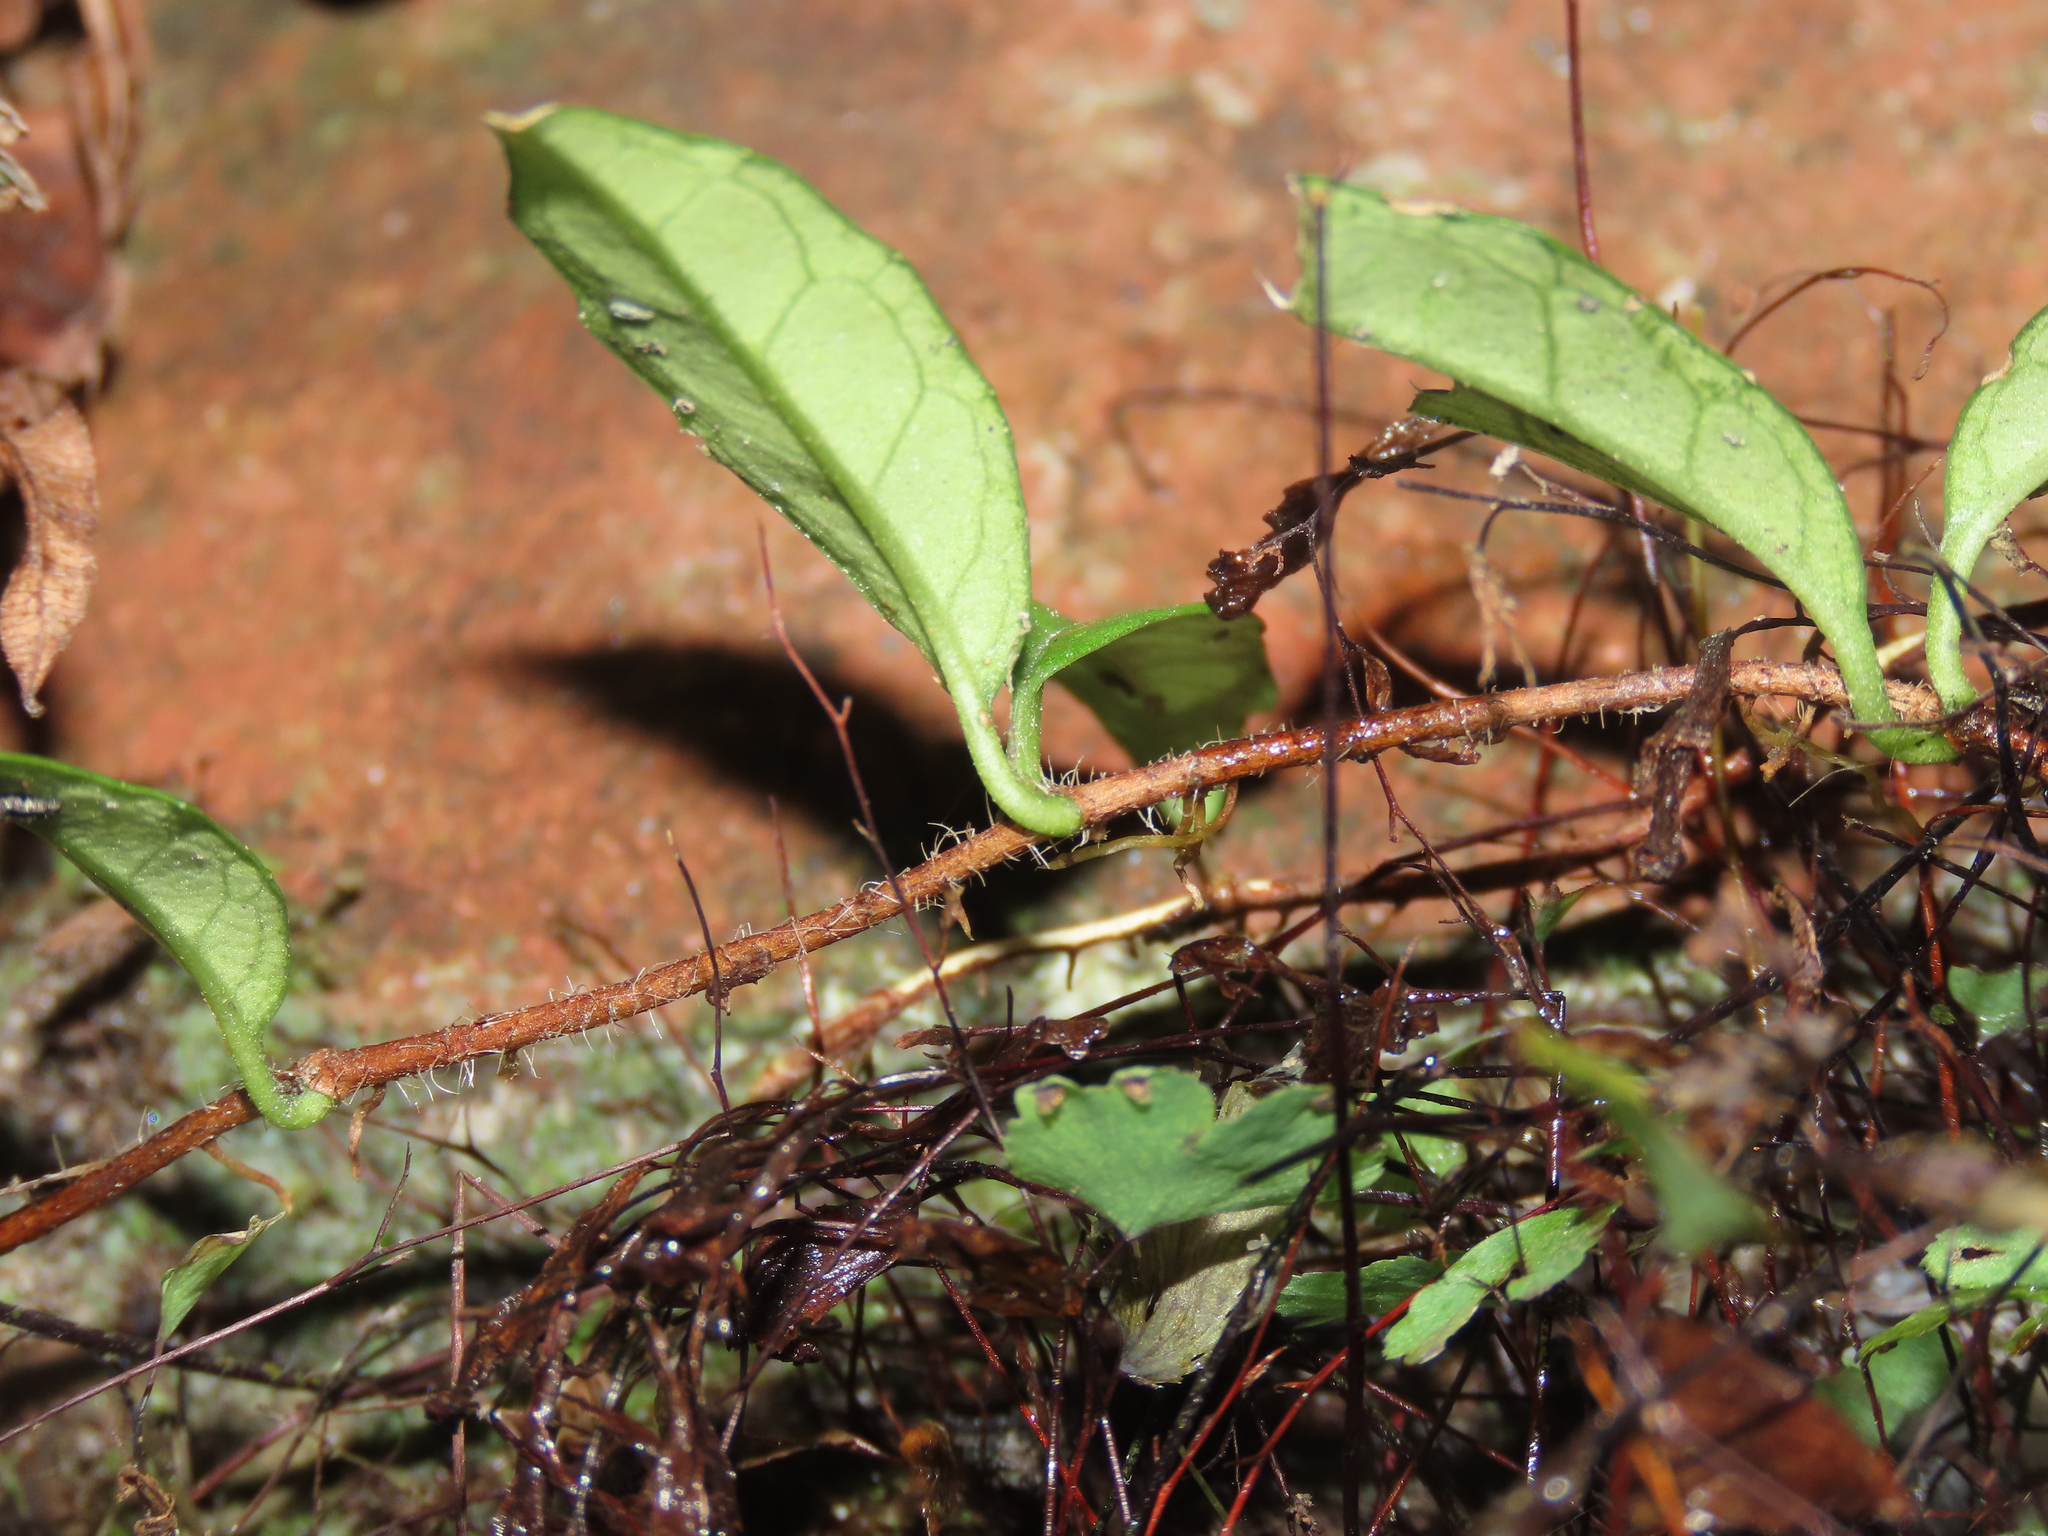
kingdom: Plantae
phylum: Tracheophyta
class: Magnoliopsida
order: Cornales
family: Hydrangeaceae
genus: Hydrangea
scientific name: Hydrangea viburnoides
